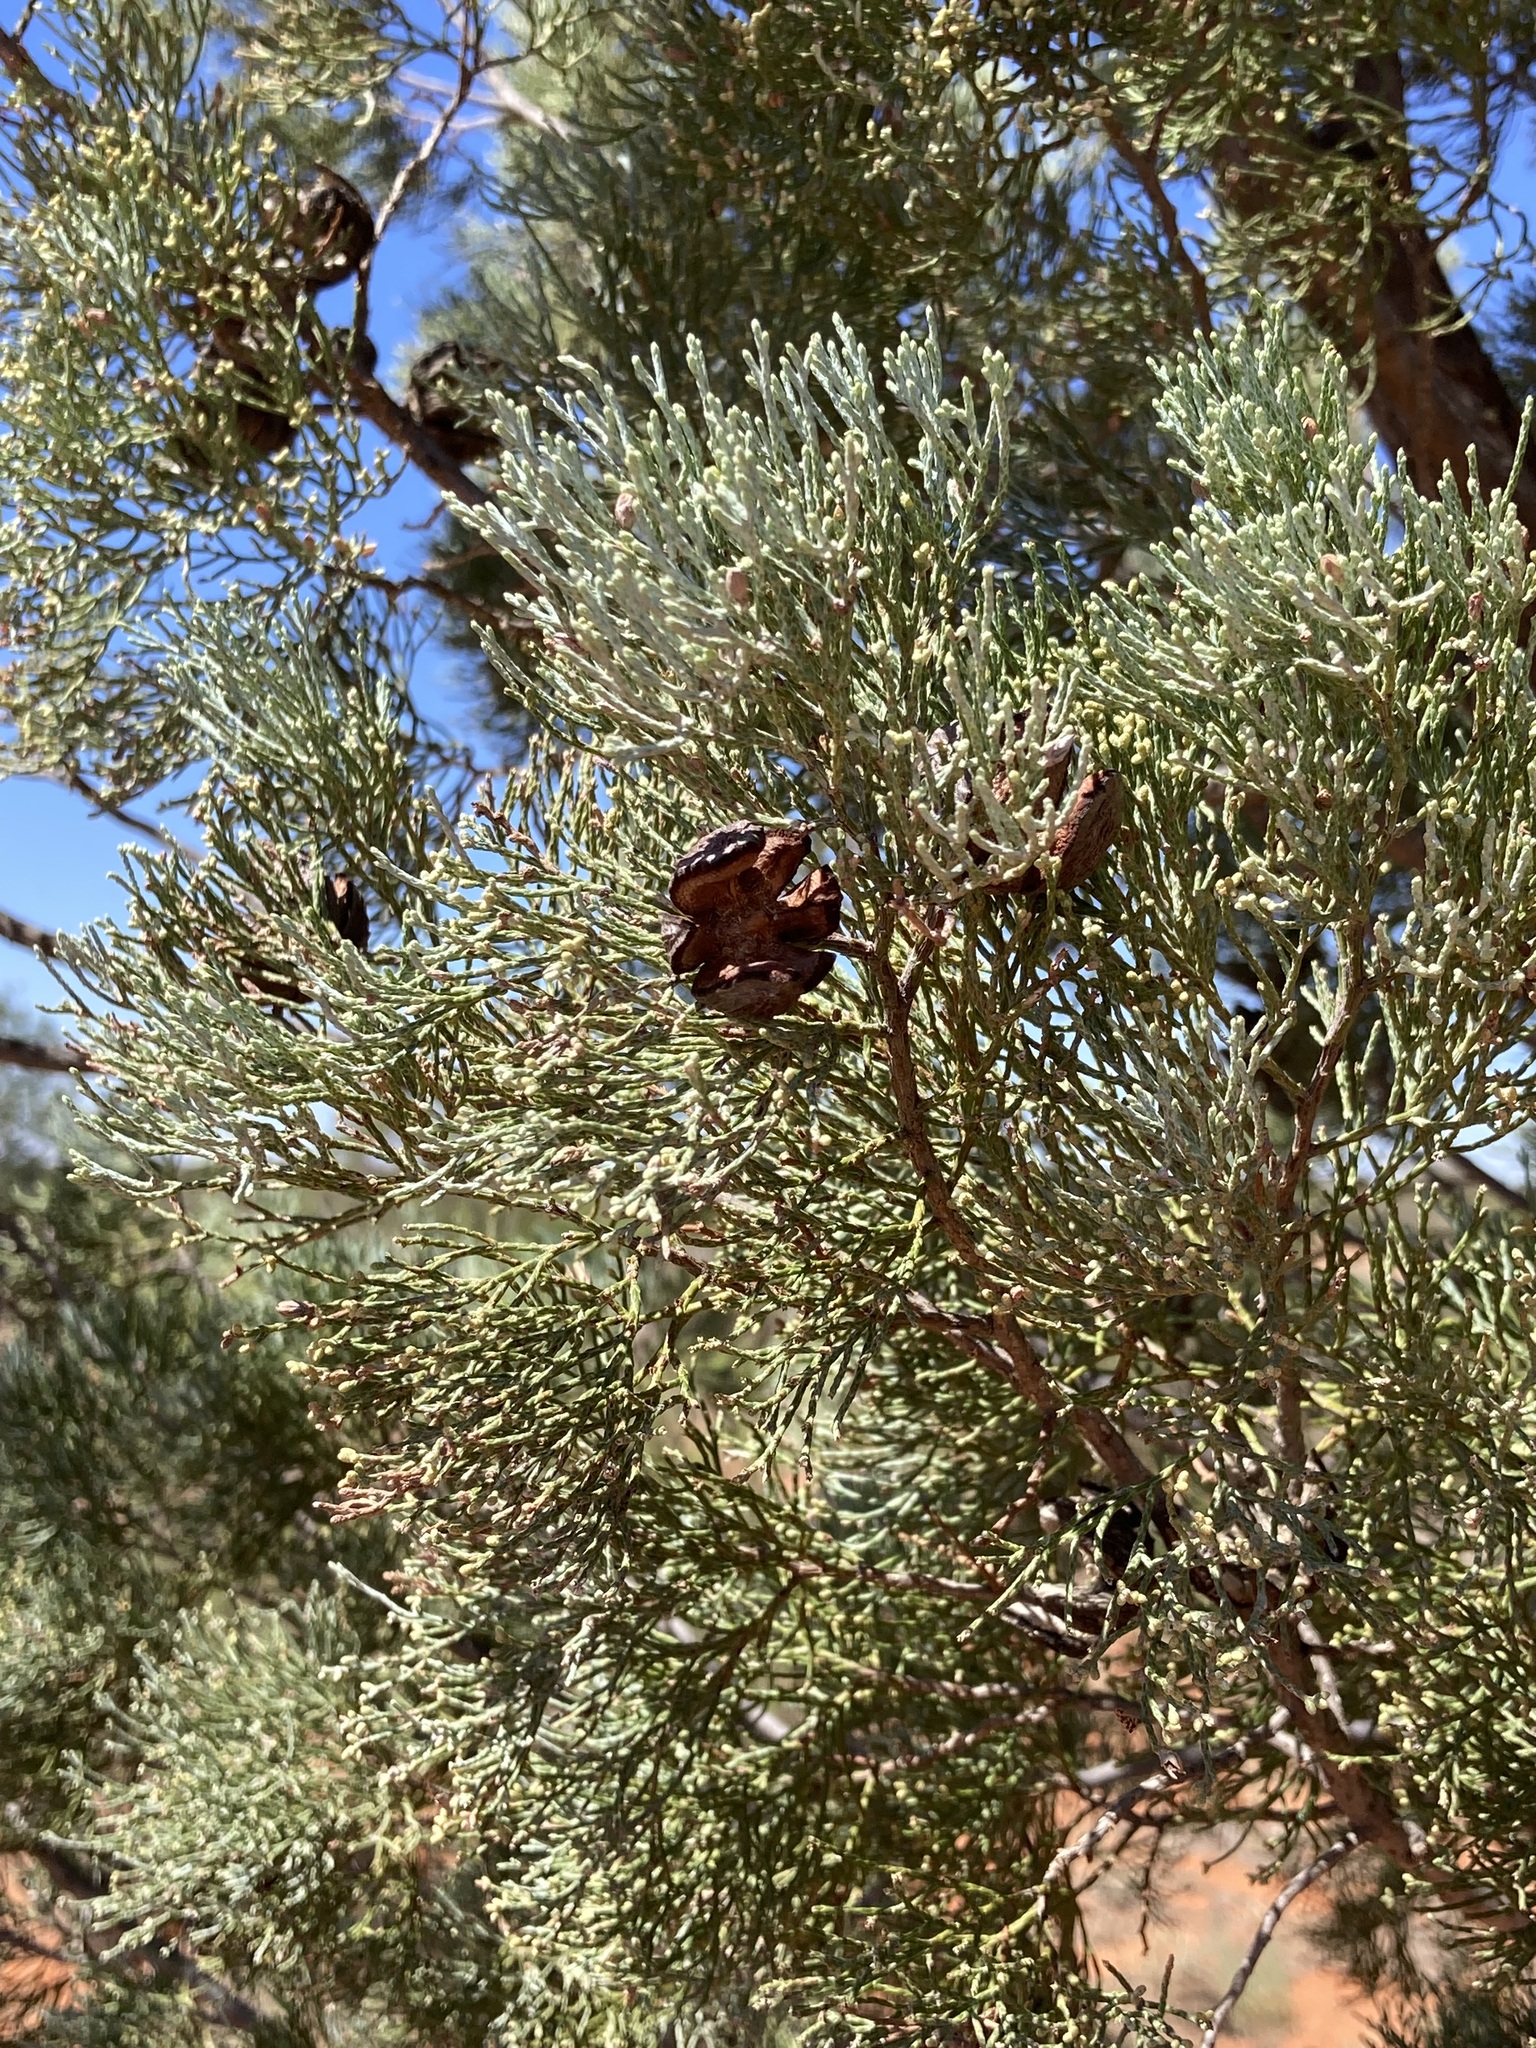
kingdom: Plantae
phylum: Tracheophyta
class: Pinopsida
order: Pinales
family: Cupressaceae
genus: Callitris
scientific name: Callitris columellaris
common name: White cypress-pine
